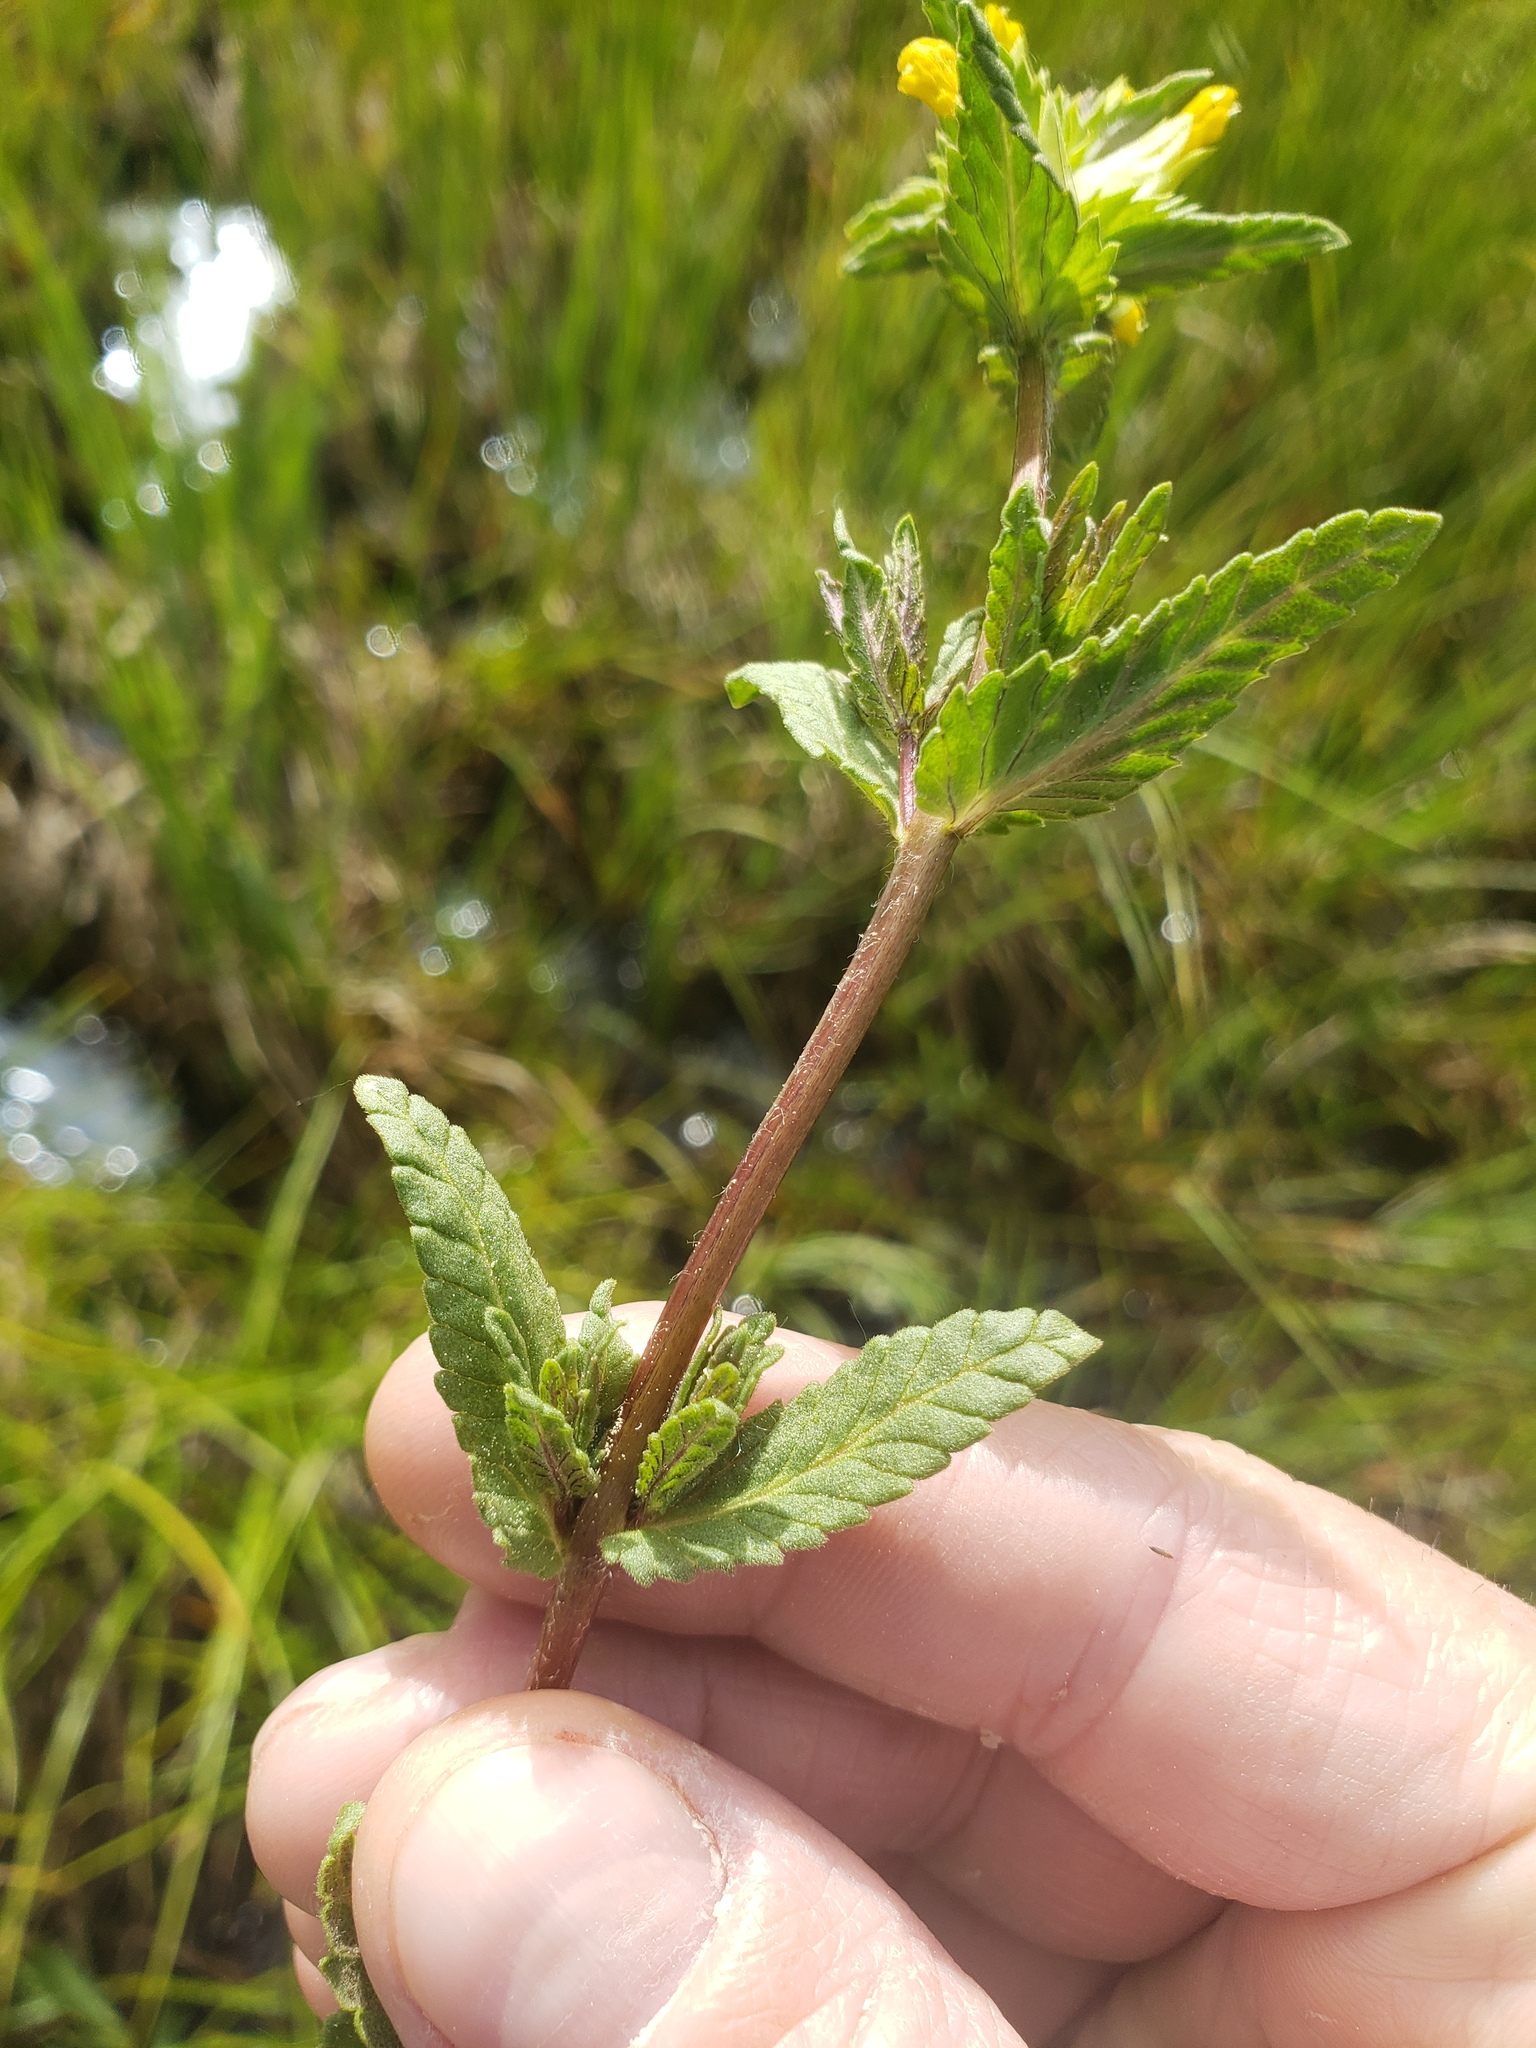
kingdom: Plantae
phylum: Tracheophyta
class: Magnoliopsida
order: Lamiales
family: Orobanchaceae
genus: Rhinanthus
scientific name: Rhinanthus groenlandicus
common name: Little yellow rattle
